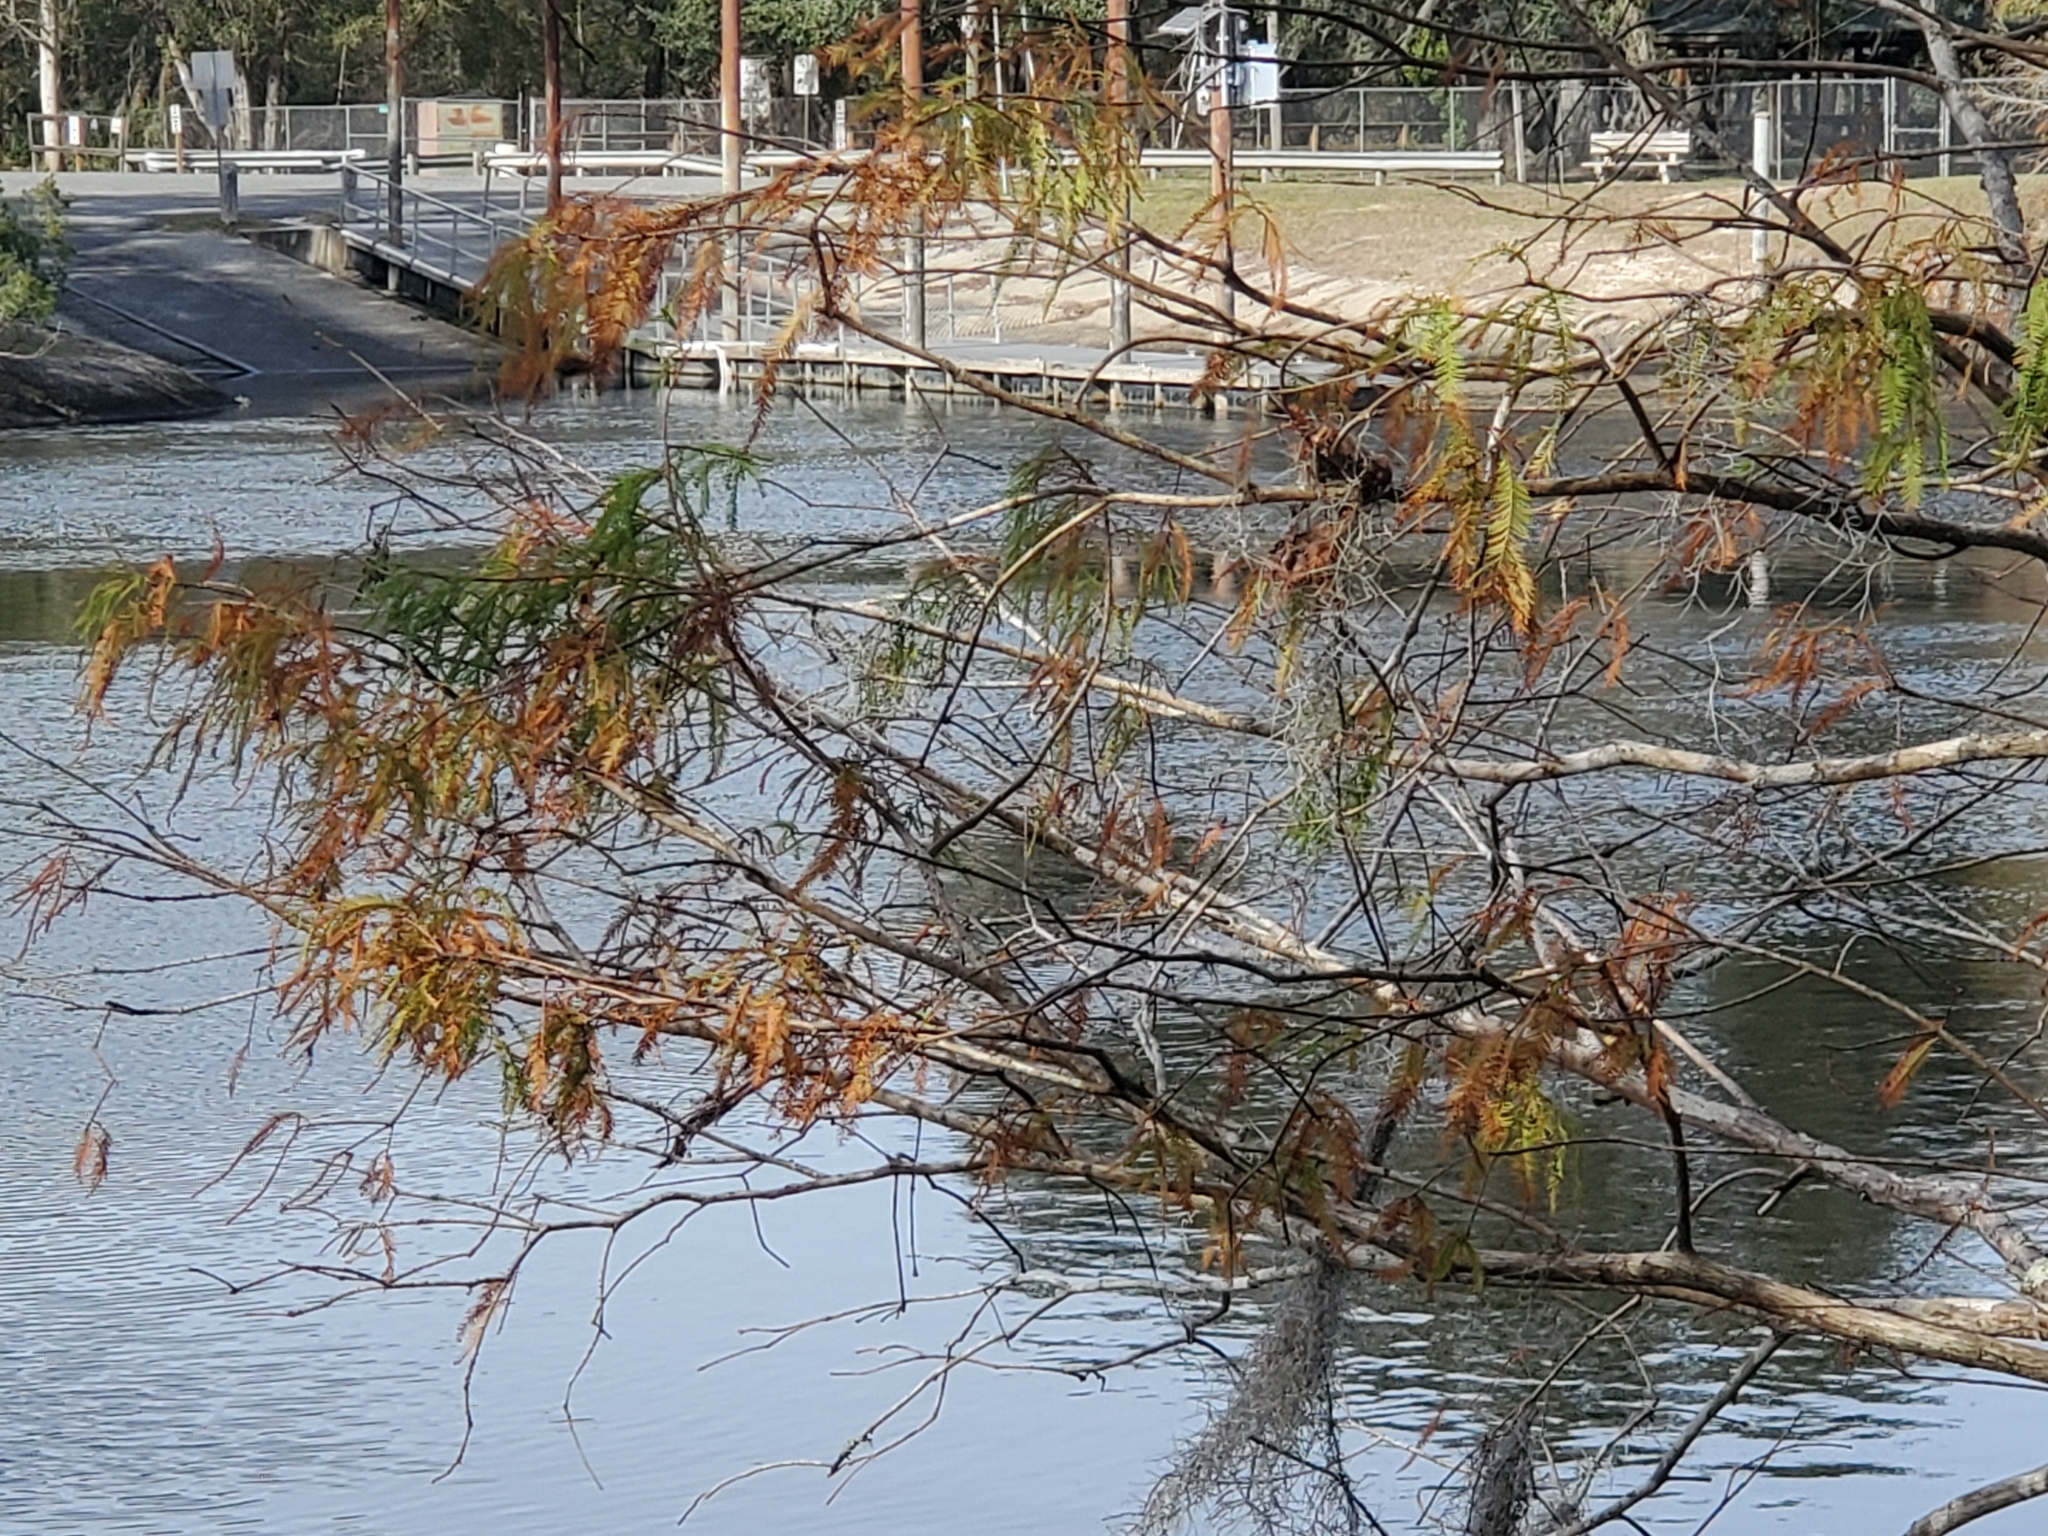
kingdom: Plantae
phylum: Tracheophyta
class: Pinopsida
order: Pinales
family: Cupressaceae
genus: Taxodium
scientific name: Taxodium distichum
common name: Bald cypress
